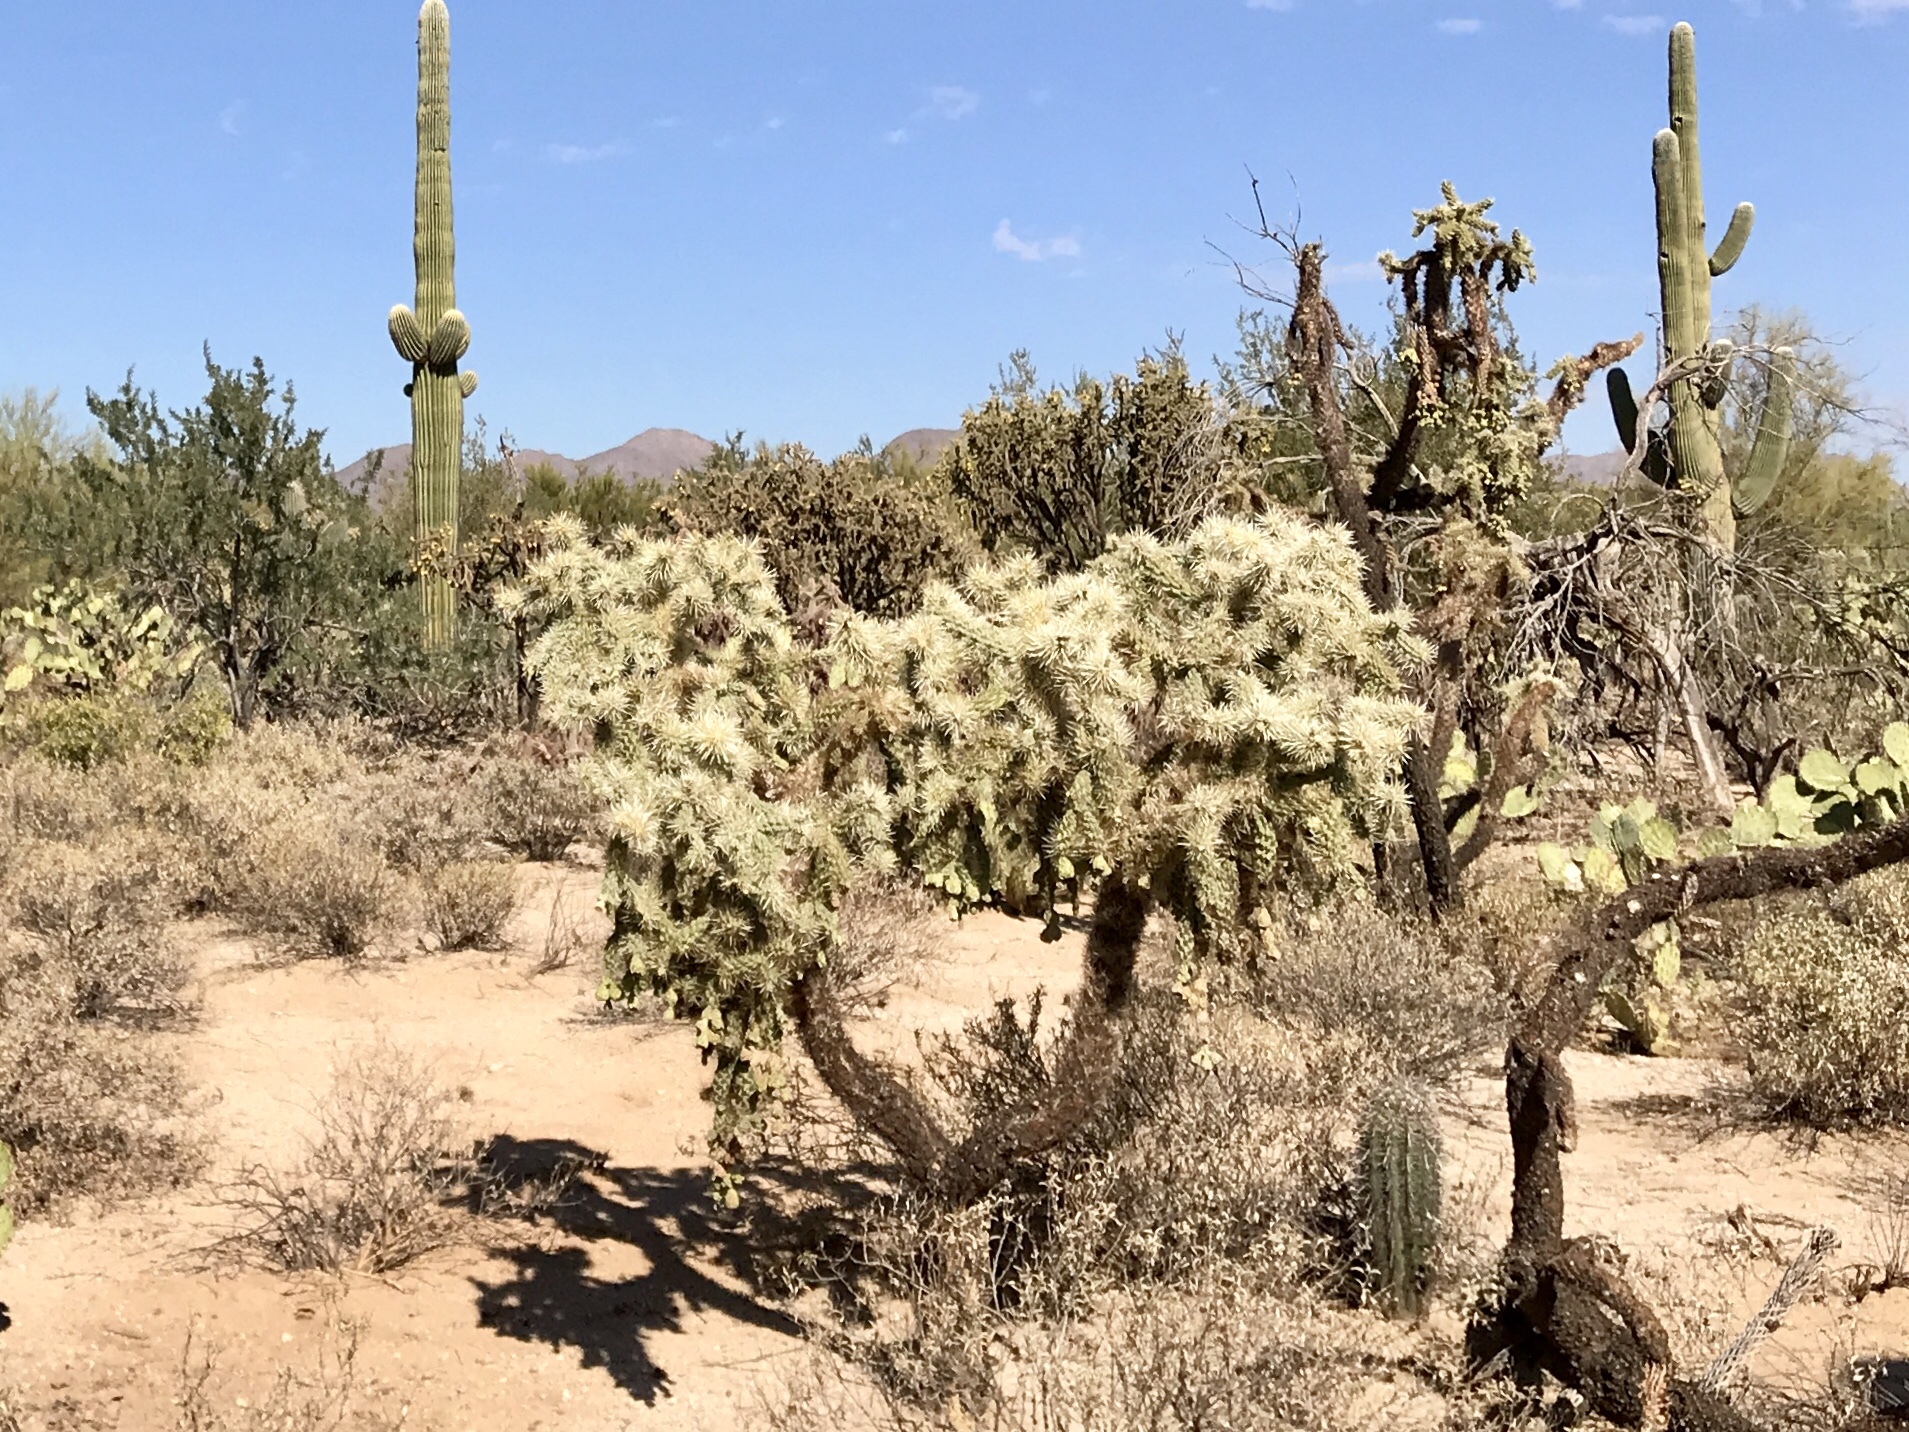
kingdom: Plantae
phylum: Tracheophyta
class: Magnoliopsida
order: Caryophyllales
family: Cactaceae
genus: Cylindropuntia
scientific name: Cylindropuntia fulgida
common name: Jumping cholla
